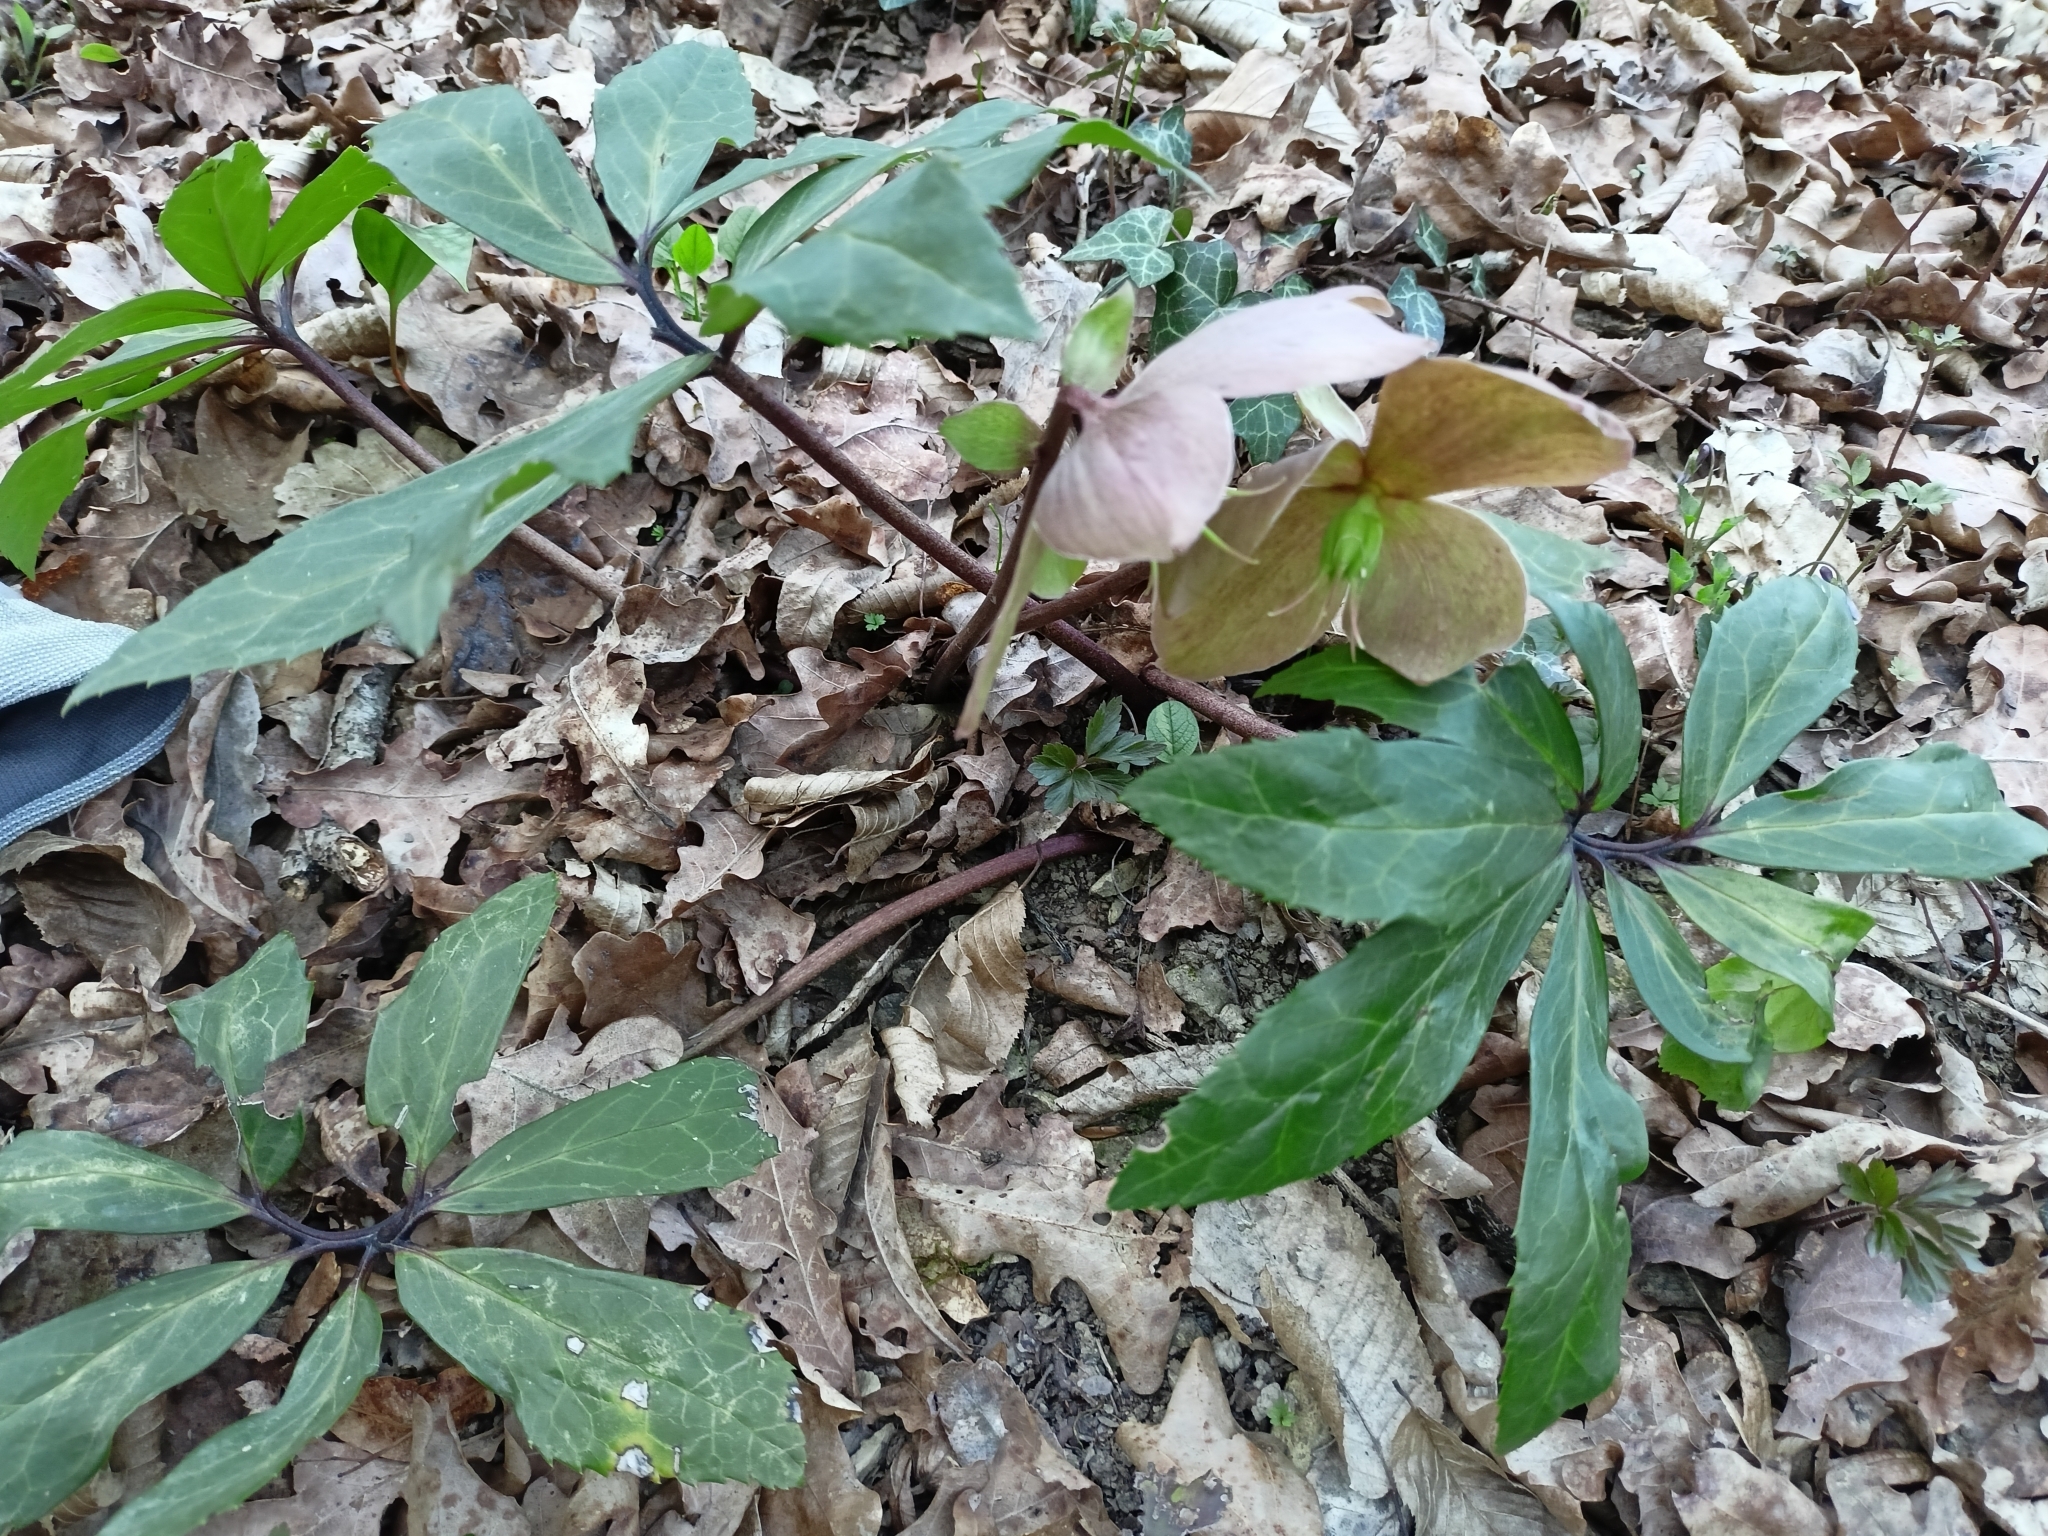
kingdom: Plantae
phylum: Tracheophyta
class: Magnoliopsida
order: Ranunculales
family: Ranunculaceae
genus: Helleborus
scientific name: Helleborus niger
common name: Black hellebore
